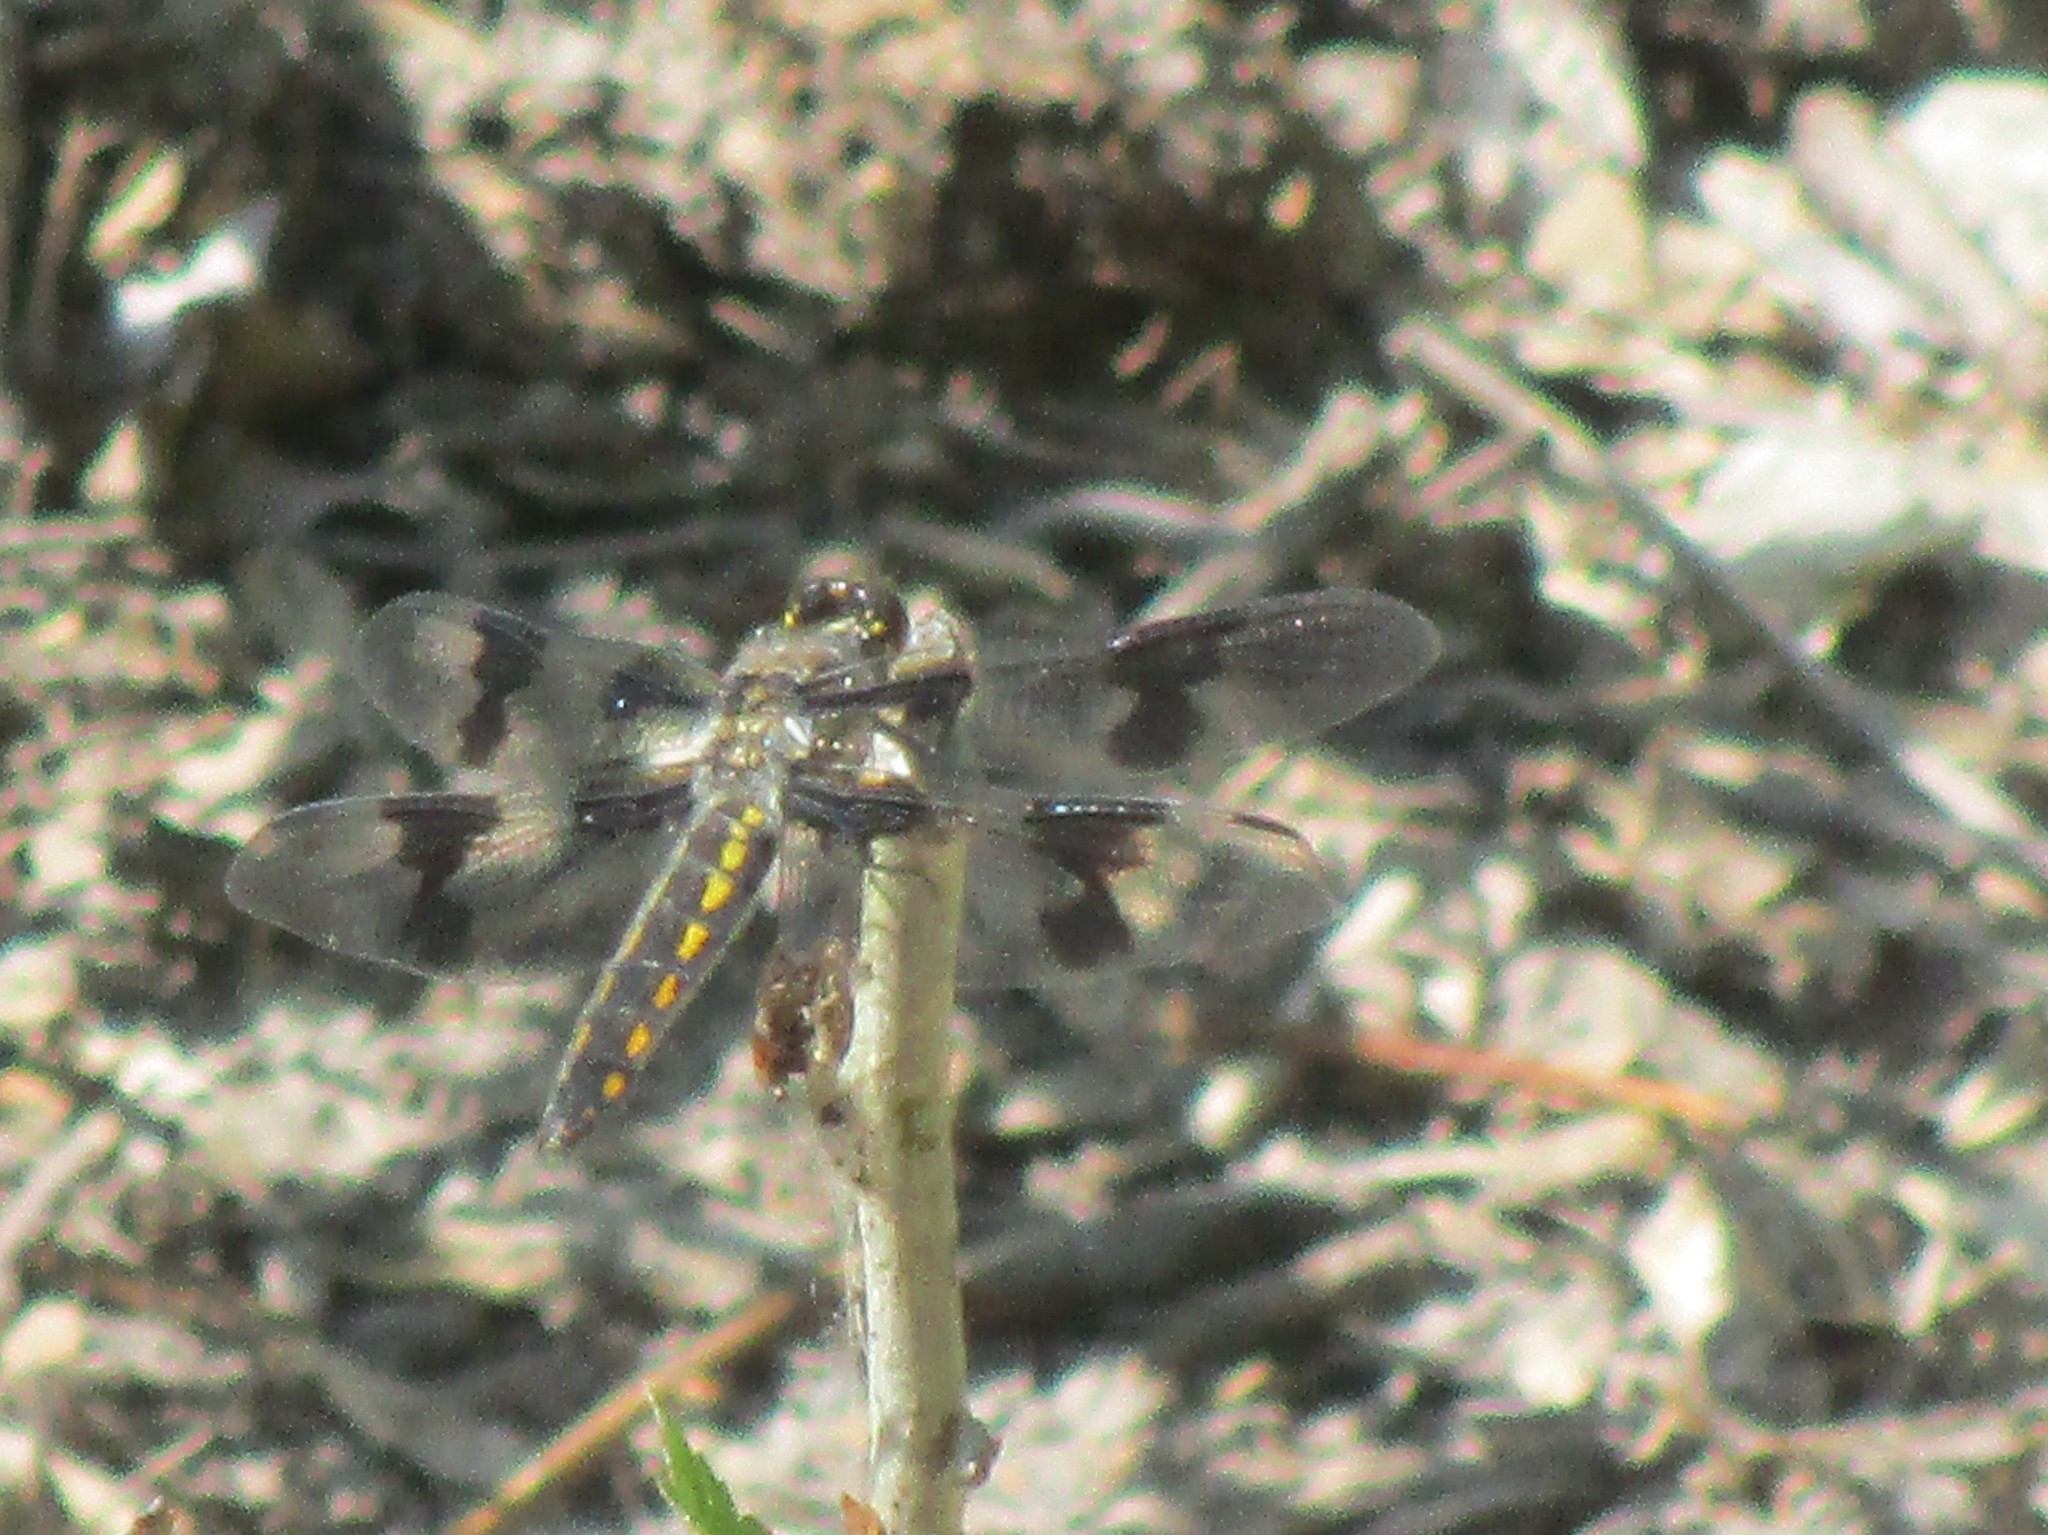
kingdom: Animalia
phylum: Arthropoda
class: Insecta
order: Odonata
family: Libellulidae
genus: Libellula
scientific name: Libellula forensis
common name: Eight-spotted skimmer
